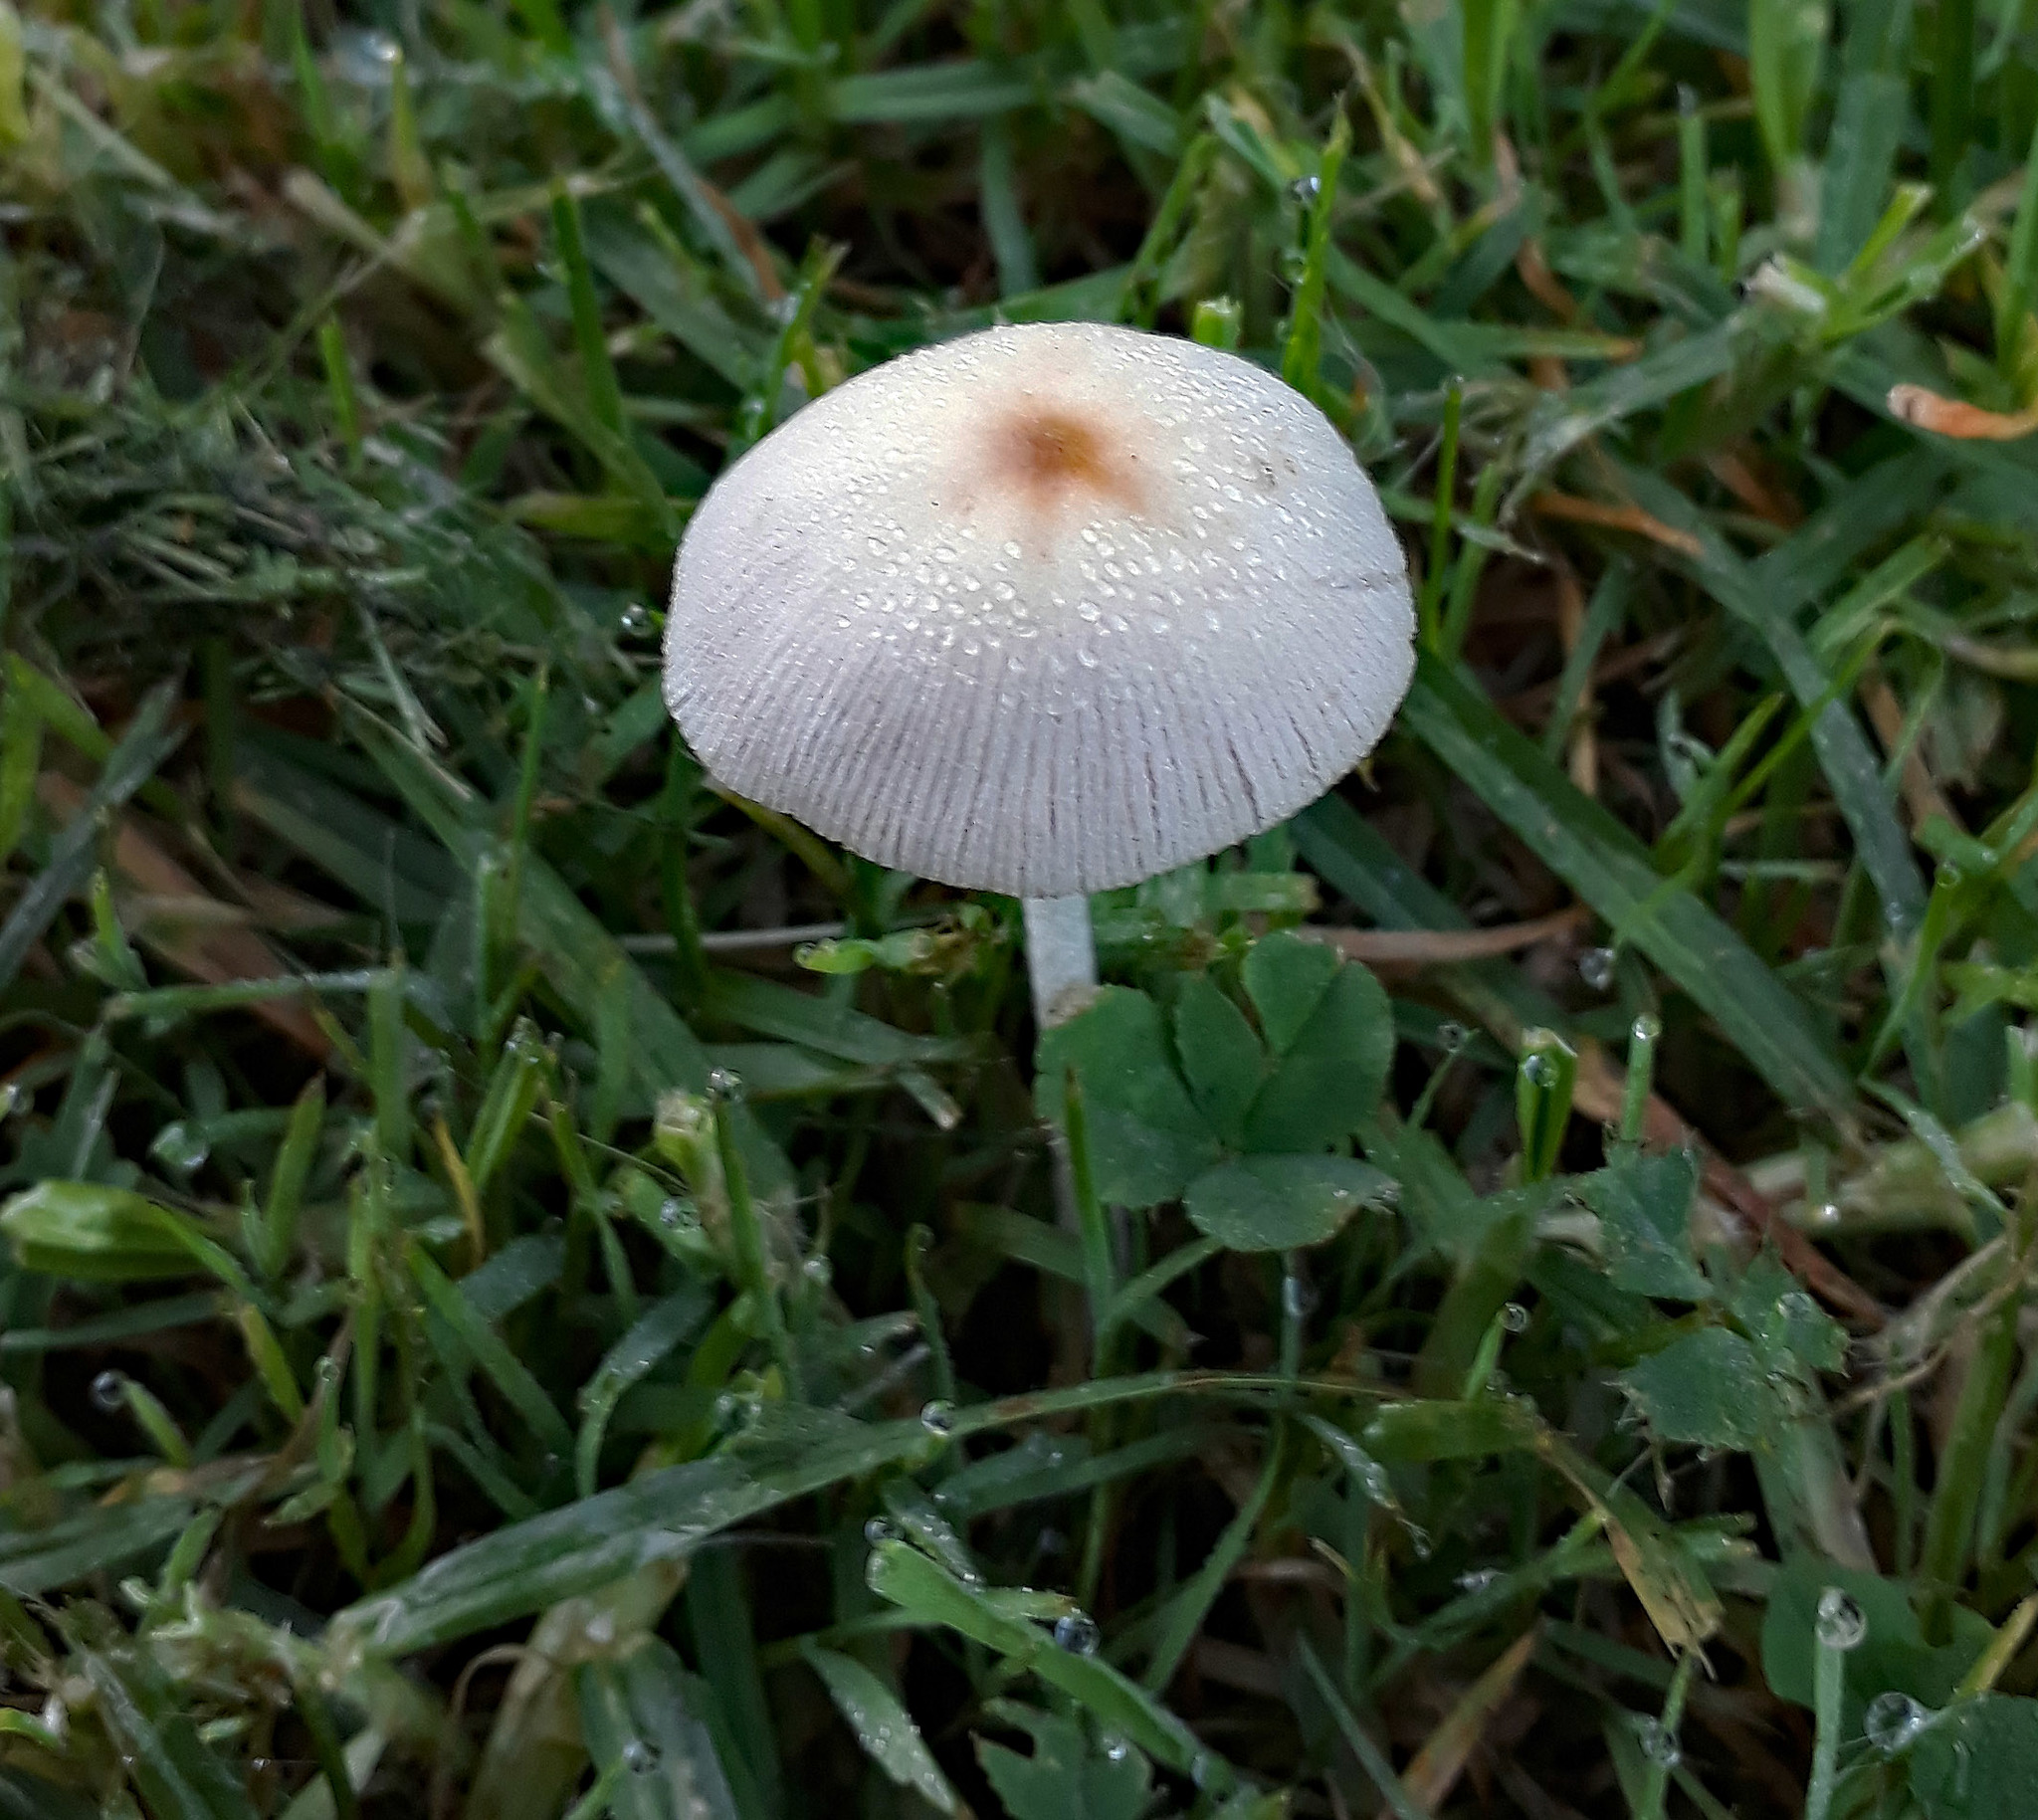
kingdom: Fungi
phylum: Basidiomycota
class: Agaricomycetes
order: Agaricales
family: Bolbitiaceae
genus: Conocybe
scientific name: Conocybe apala
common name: Milky conecap
